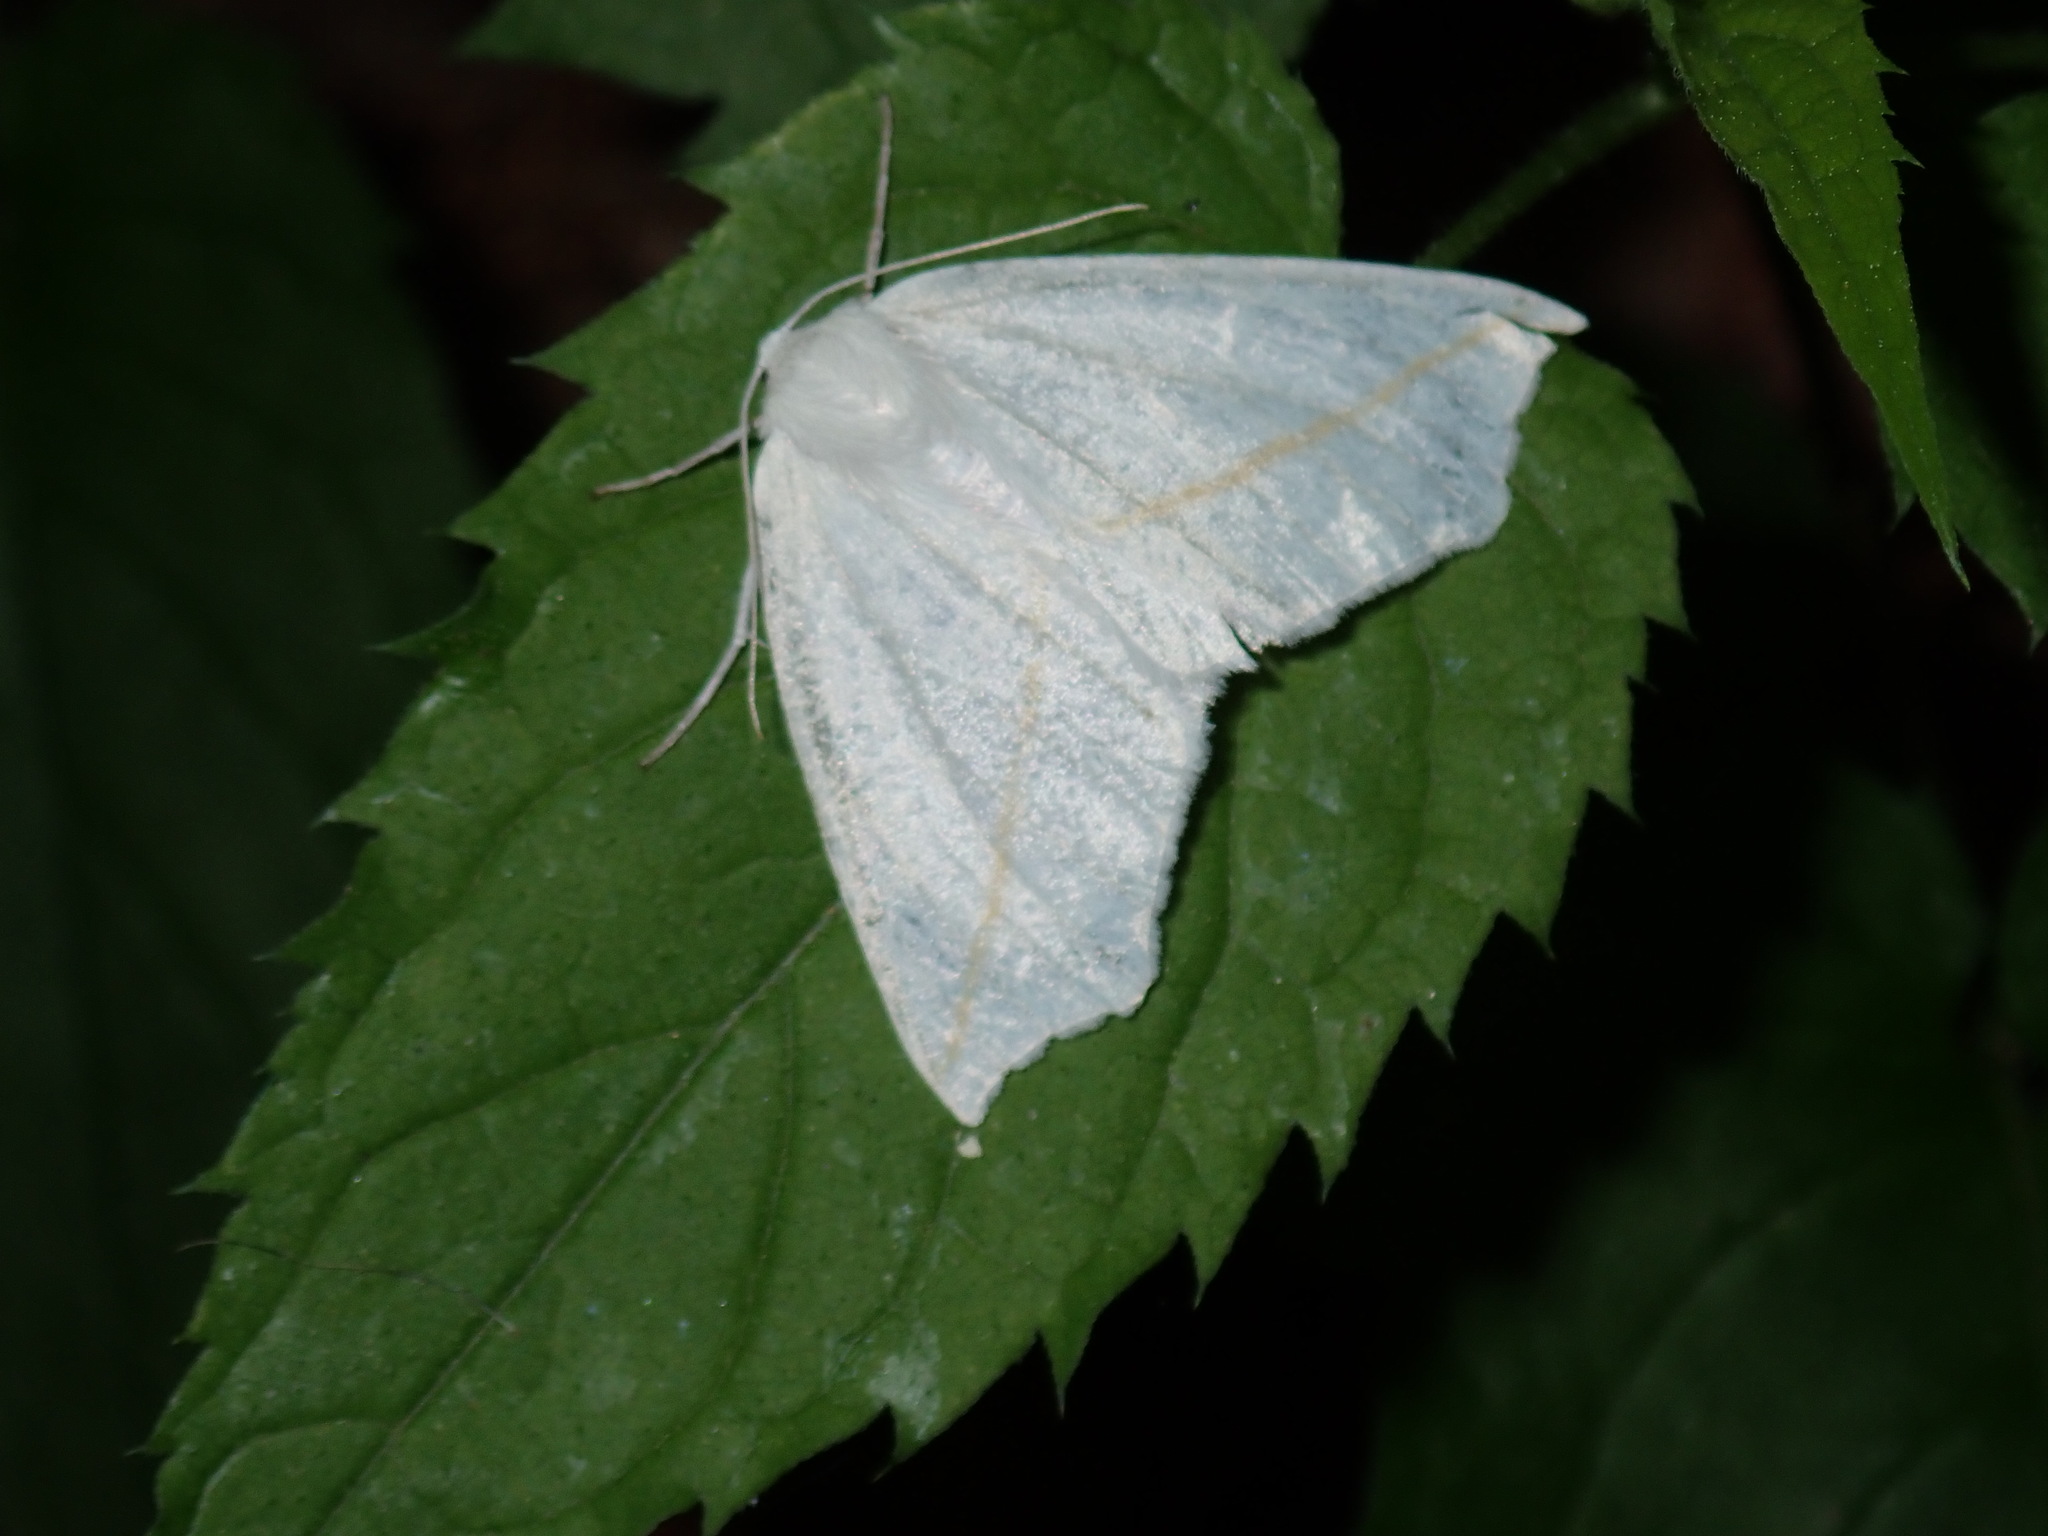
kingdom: Animalia
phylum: Arthropoda
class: Insecta
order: Lepidoptera
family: Geometridae
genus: Tetracis
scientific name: Tetracis cachexiata
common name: White slant-line
